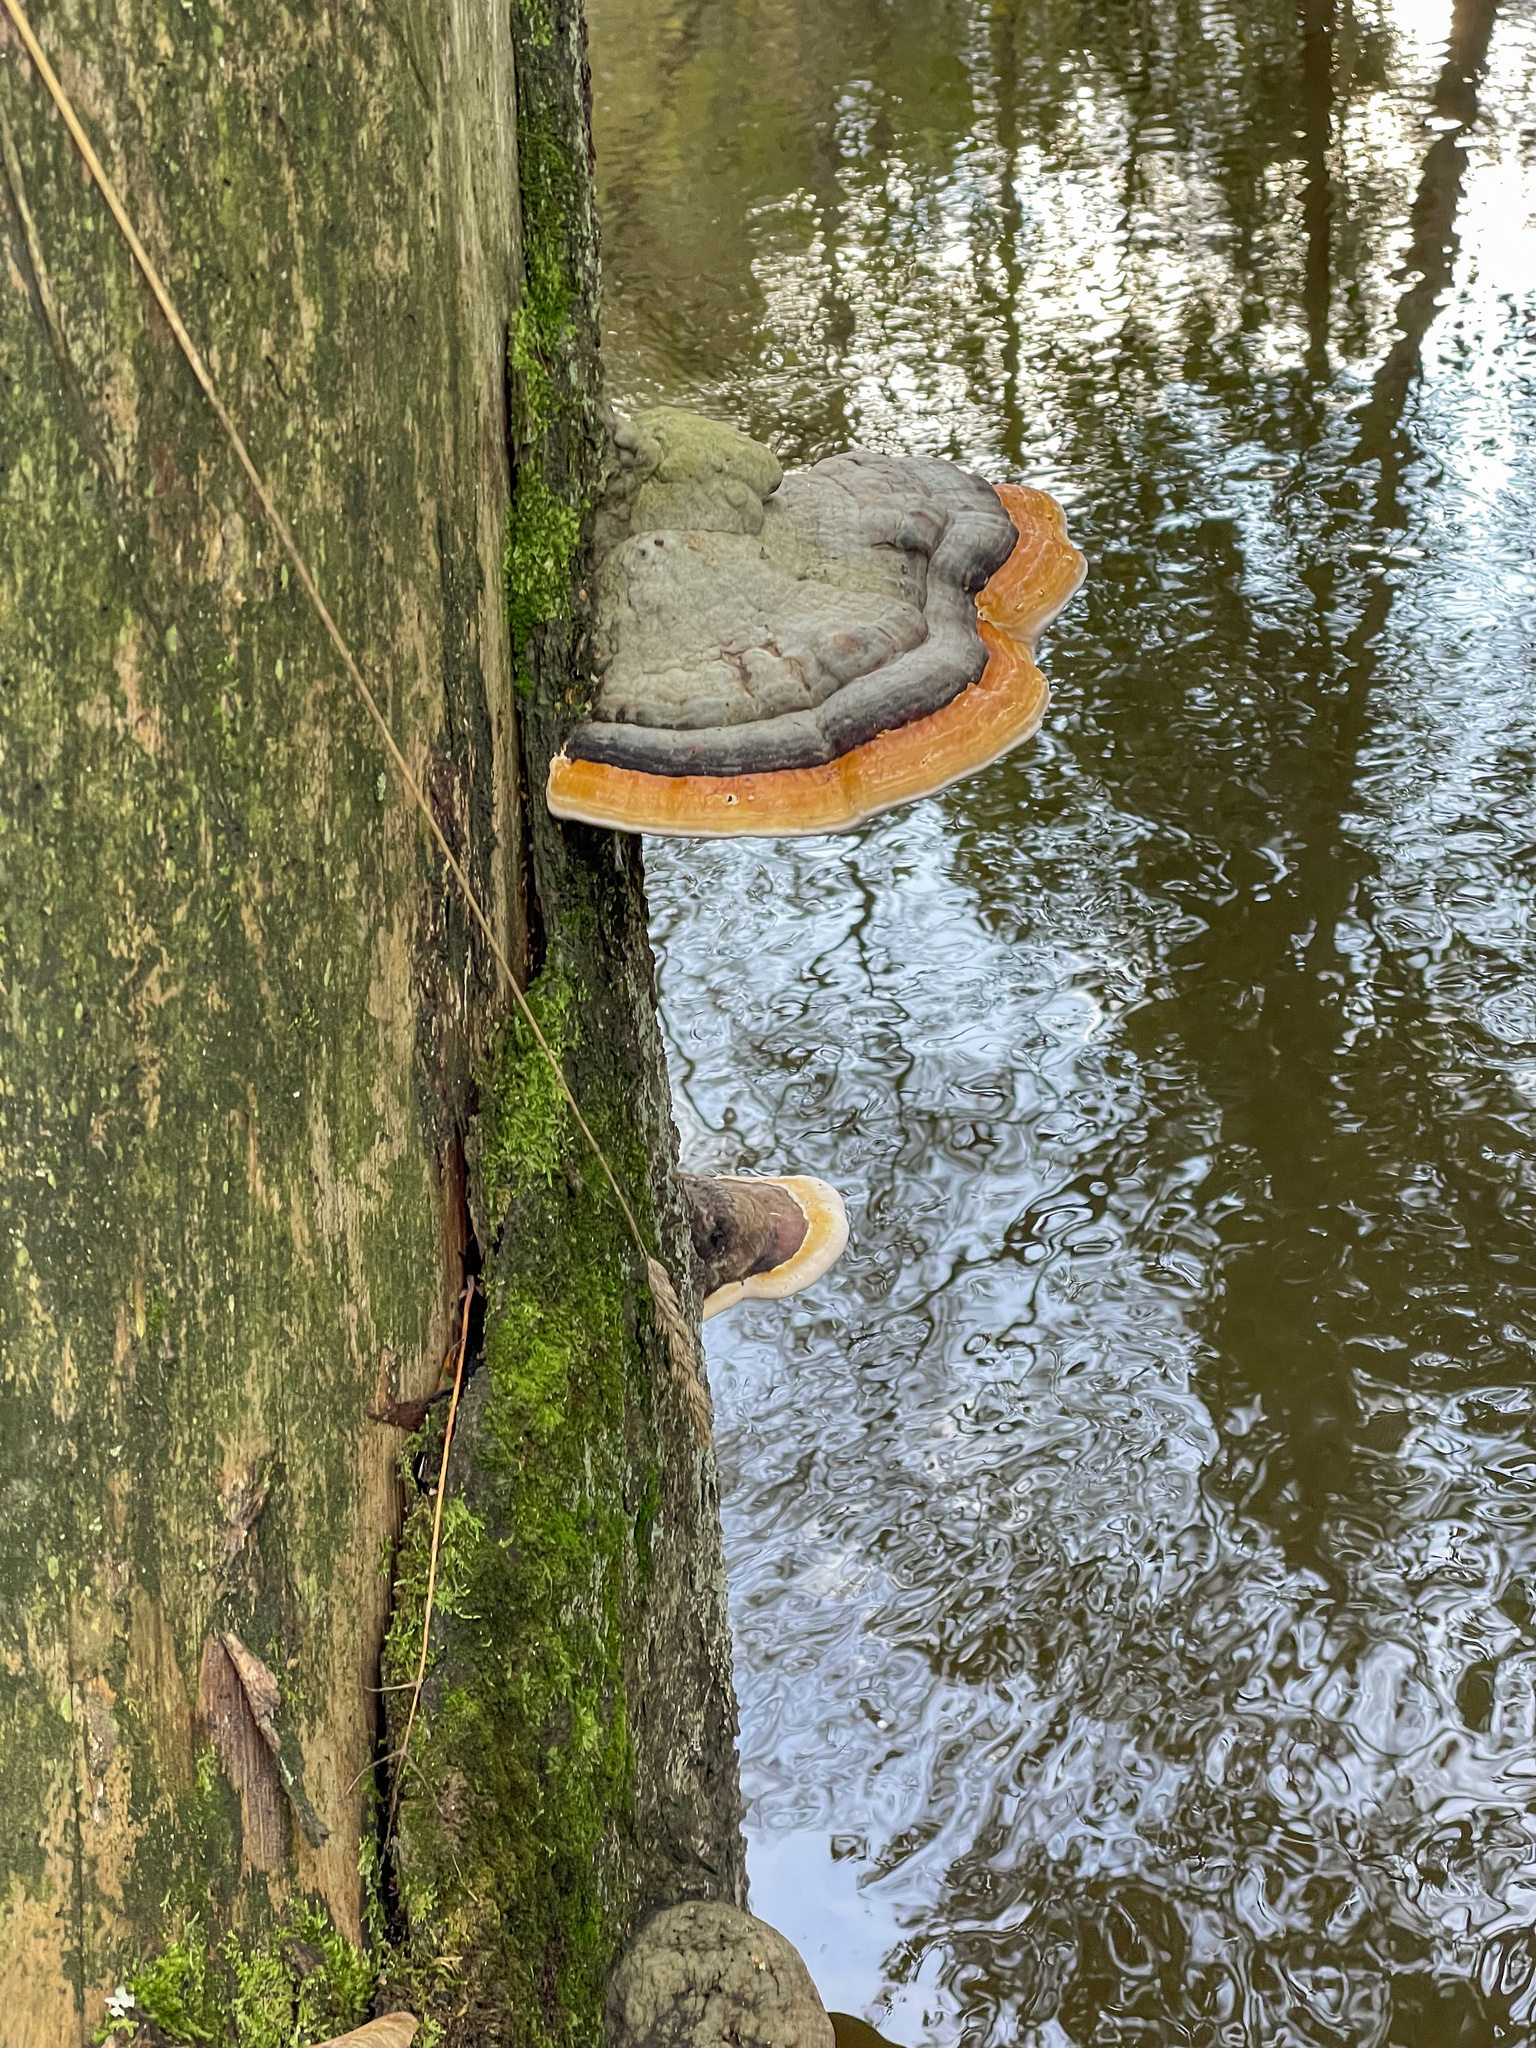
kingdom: Fungi
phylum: Basidiomycota
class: Agaricomycetes
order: Polyporales
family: Fomitopsidaceae
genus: Fomitopsis
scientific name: Fomitopsis pinicola
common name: Red-belted bracket
